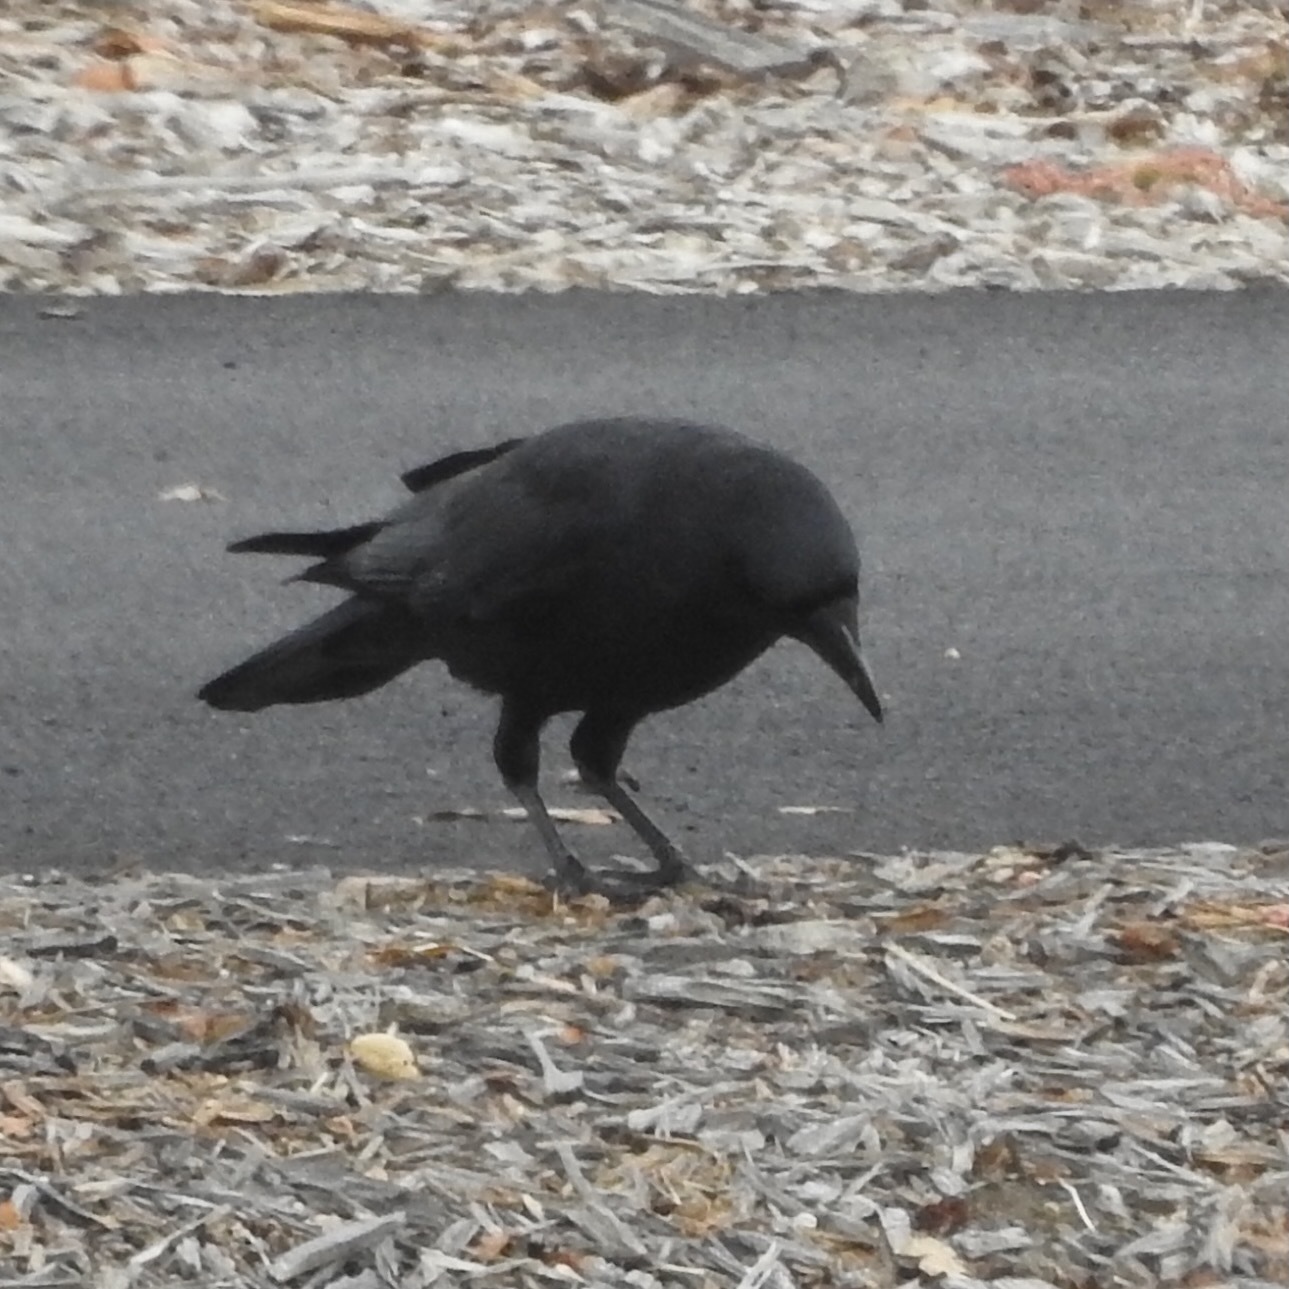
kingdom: Animalia
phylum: Chordata
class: Aves
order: Passeriformes
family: Corvidae
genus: Corvus
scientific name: Corvus brachyrhynchos
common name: American crow
